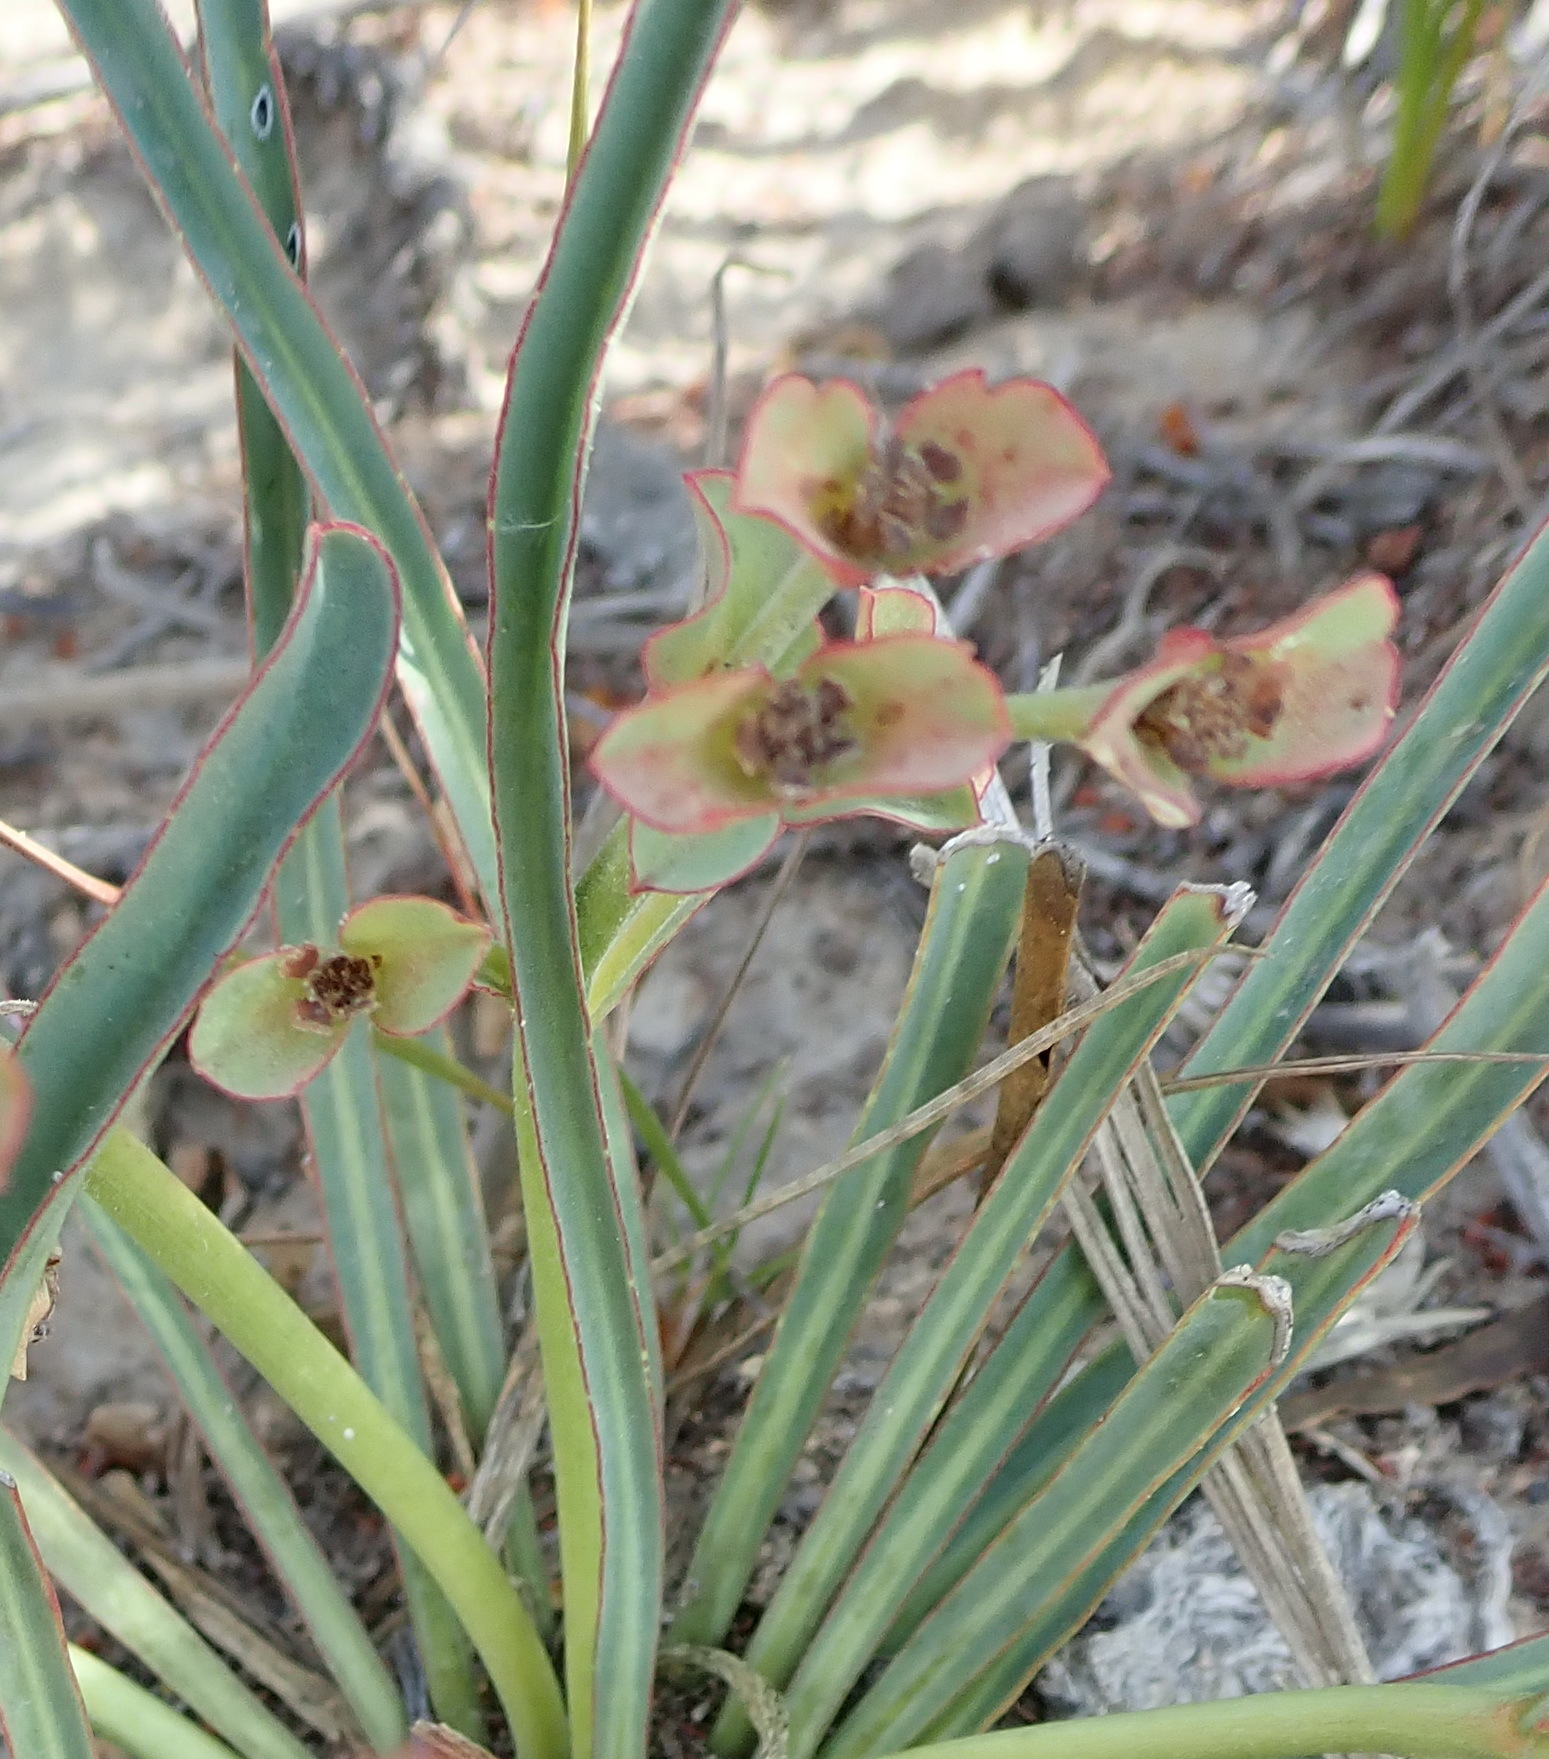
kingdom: Plantae
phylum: Tracheophyta
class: Magnoliopsida
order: Malpighiales
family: Euphorbiaceae
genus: Euphorbia
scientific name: Euphorbia silenifolia
